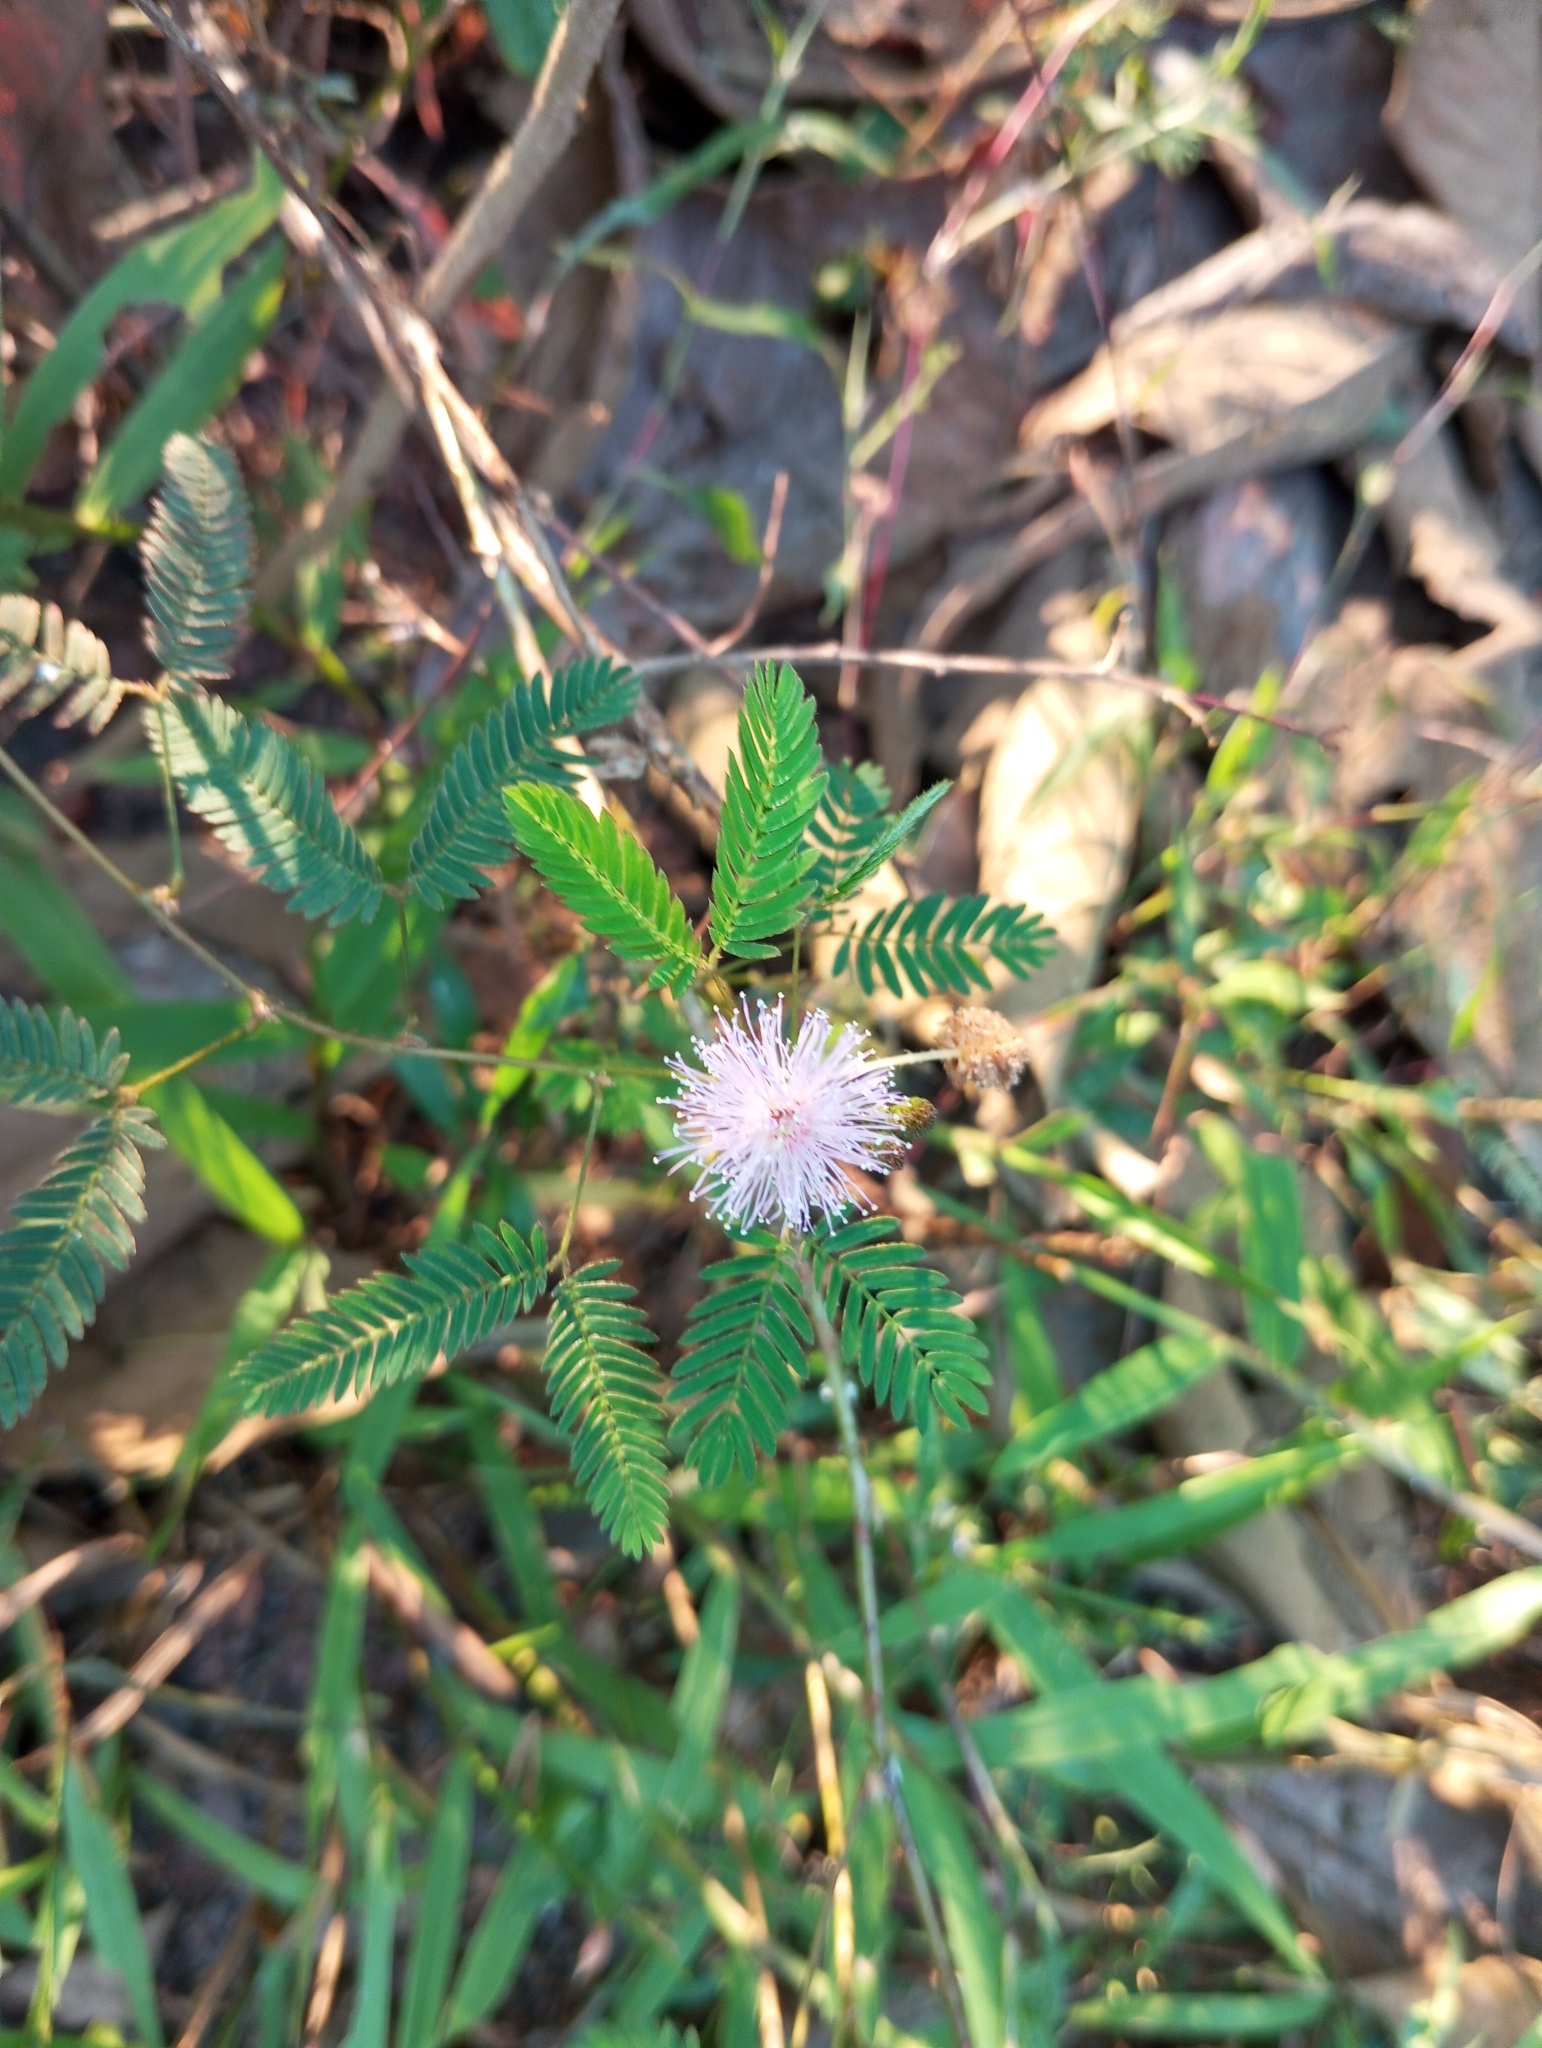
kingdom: Plantae
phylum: Tracheophyta
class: Magnoliopsida
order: Fabales
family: Fabaceae
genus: Mimosa
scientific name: Mimosa pudica
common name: Sensitive plant
